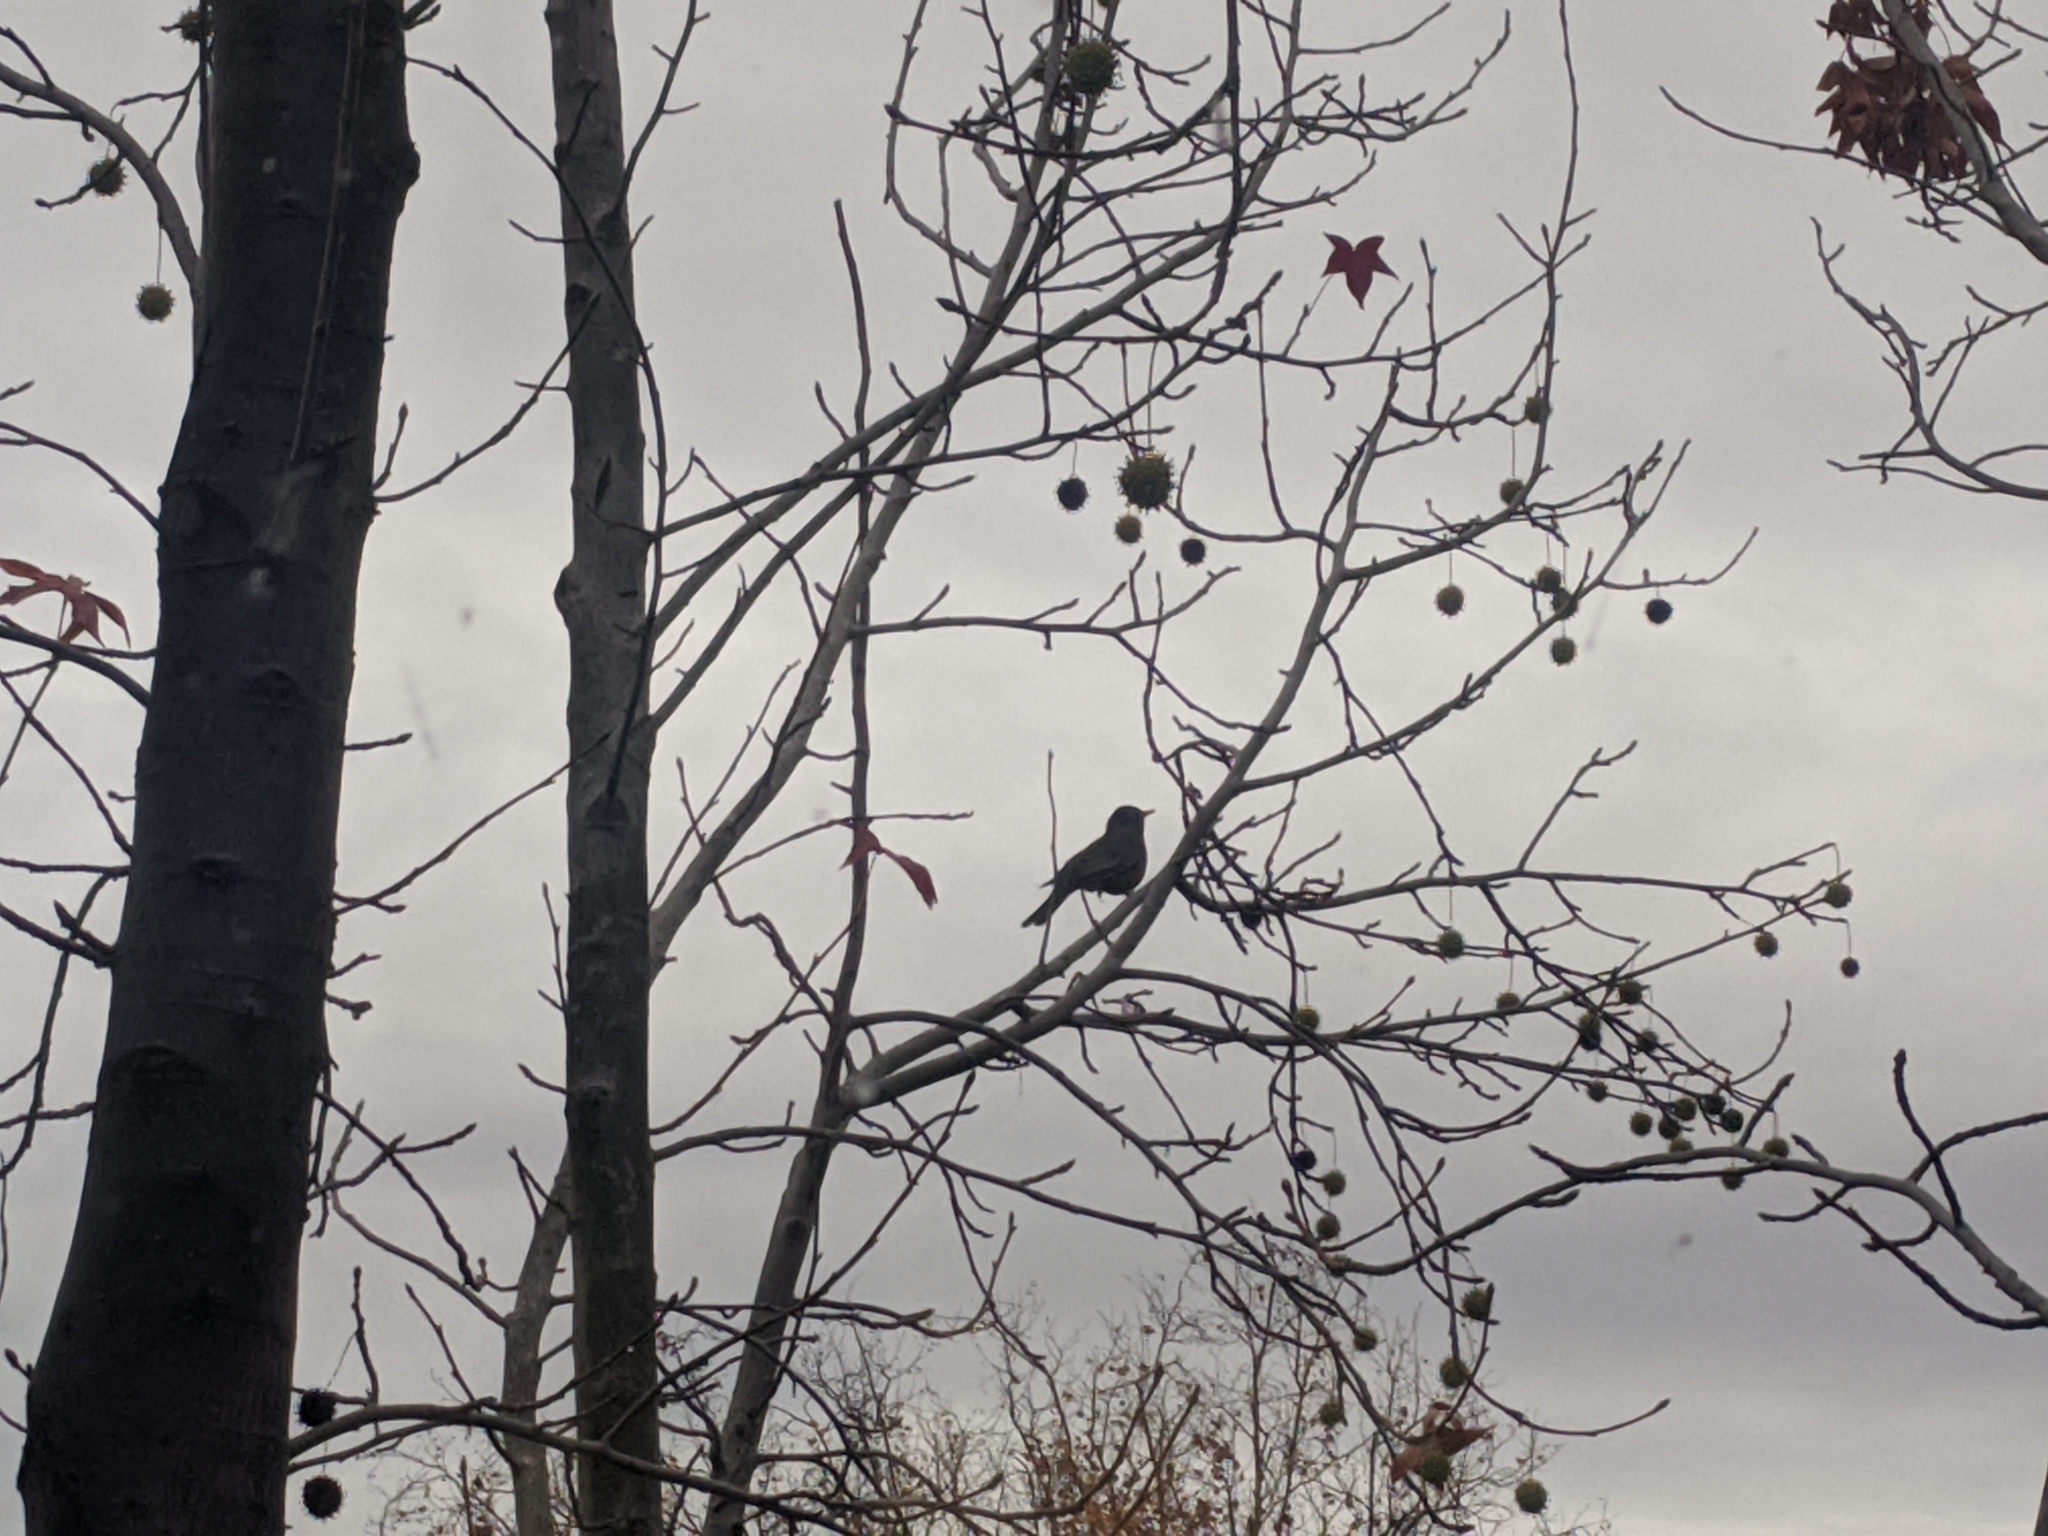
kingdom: Animalia
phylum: Chordata
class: Aves
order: Passeriformes
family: Turdidae
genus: Turdus
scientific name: Turdus migratorius
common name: American robin
